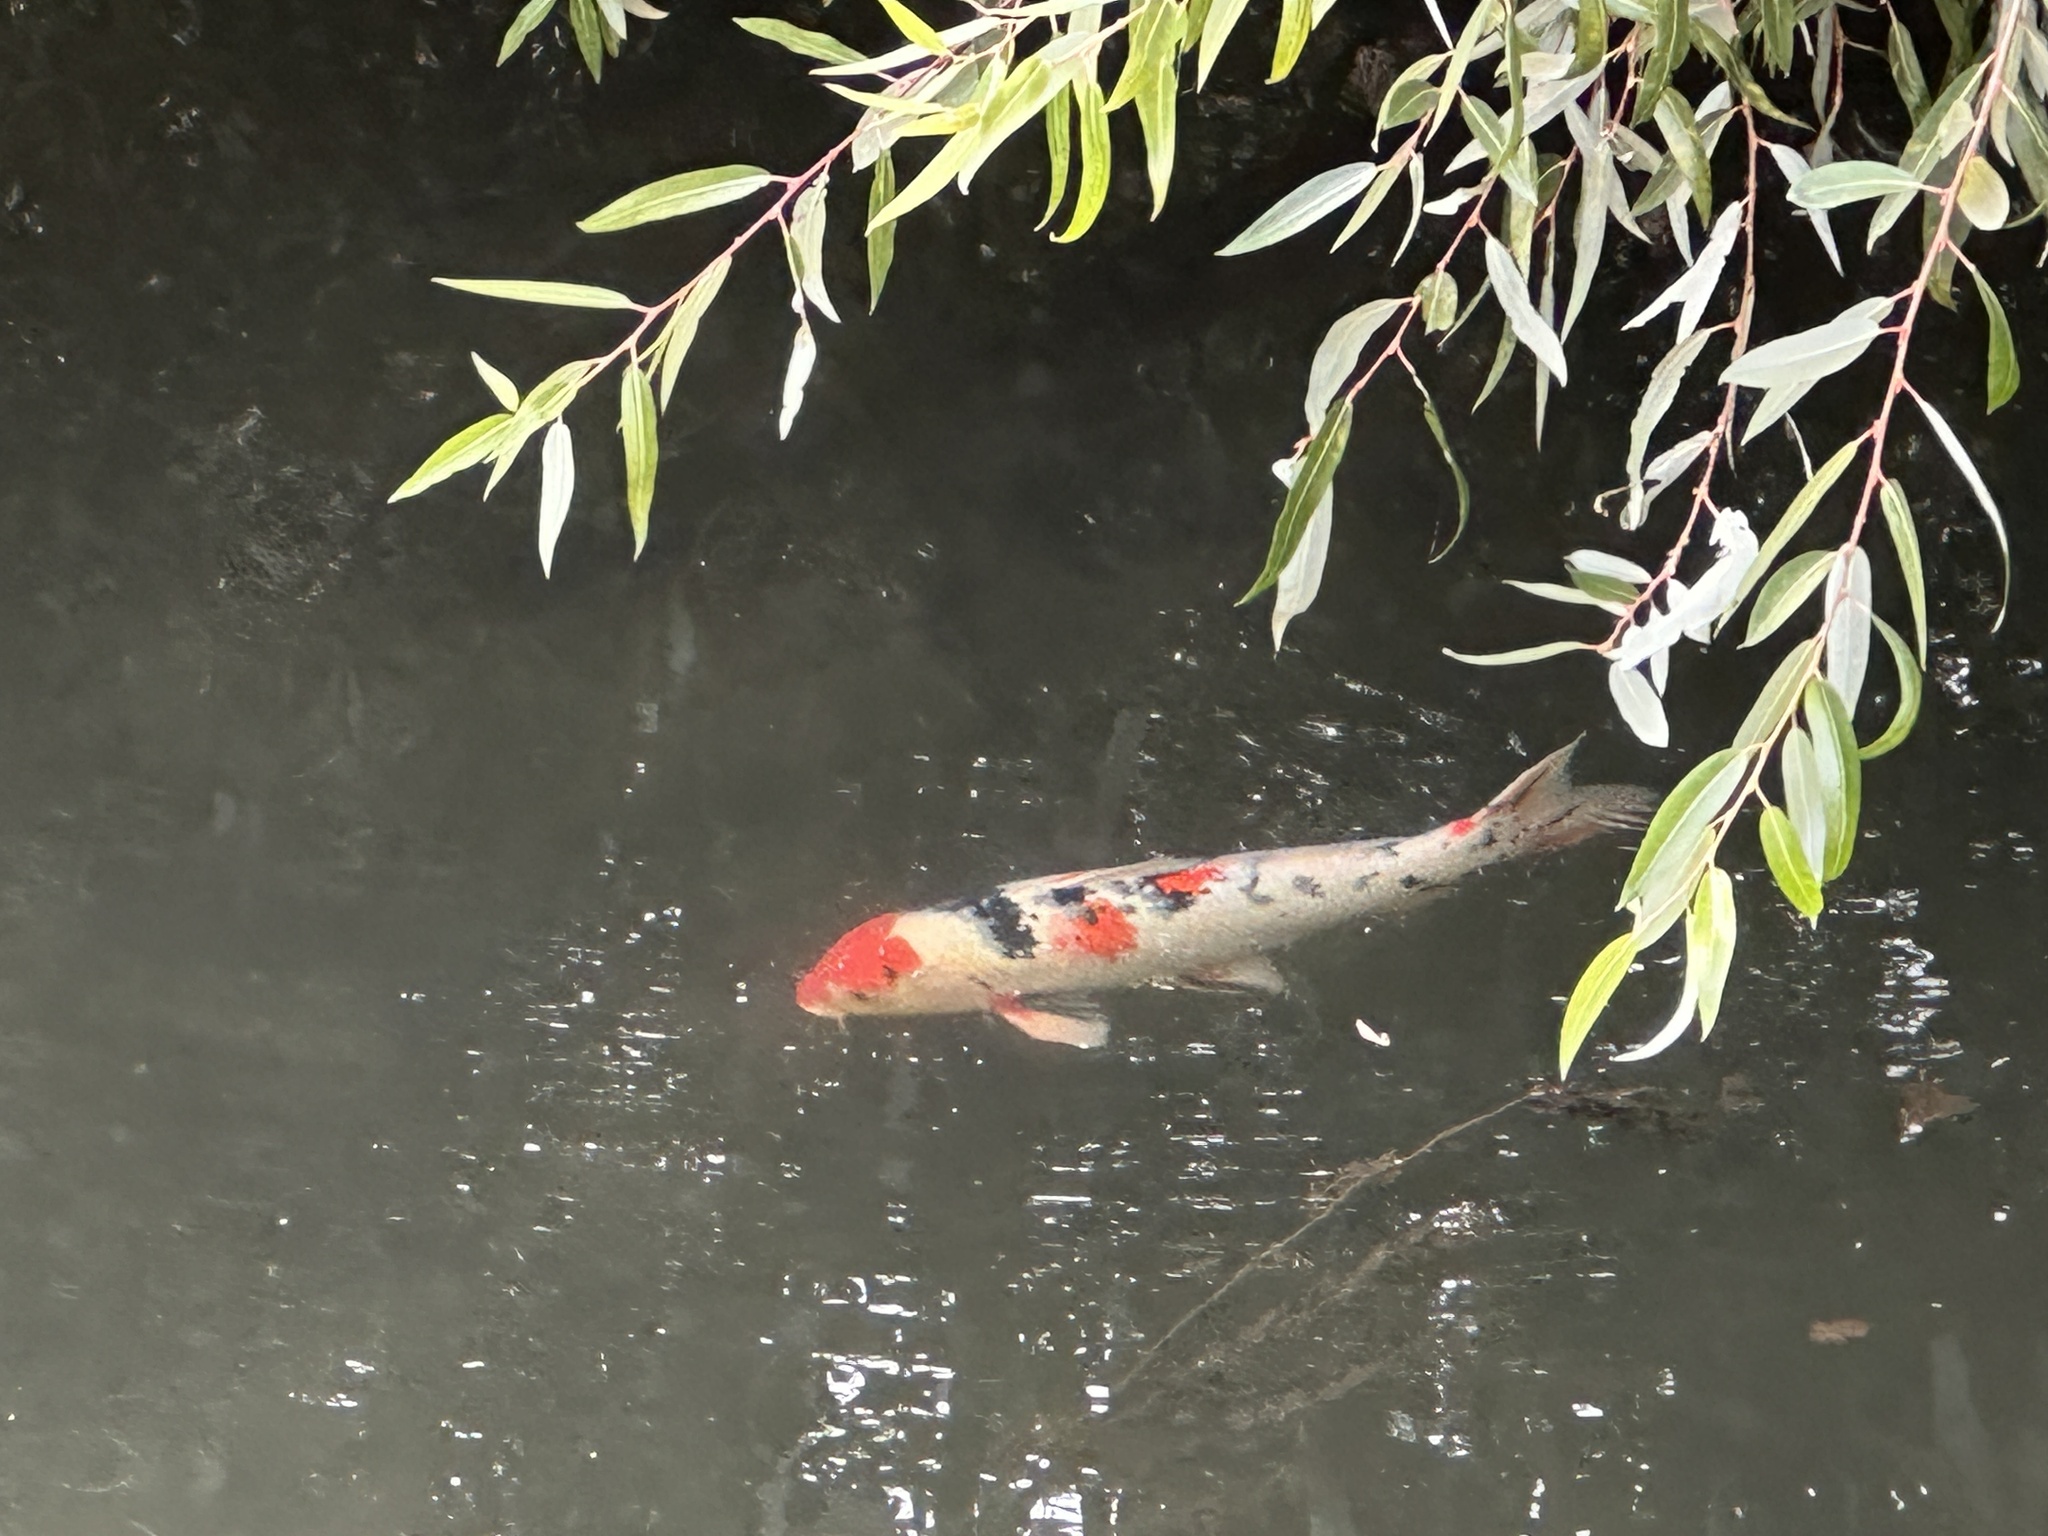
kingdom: Animalia
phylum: Chordata
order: Cypriniformes
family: Cyprinidae
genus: Cyprinus
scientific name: Cyprinus rubrofuscus
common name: Koi
